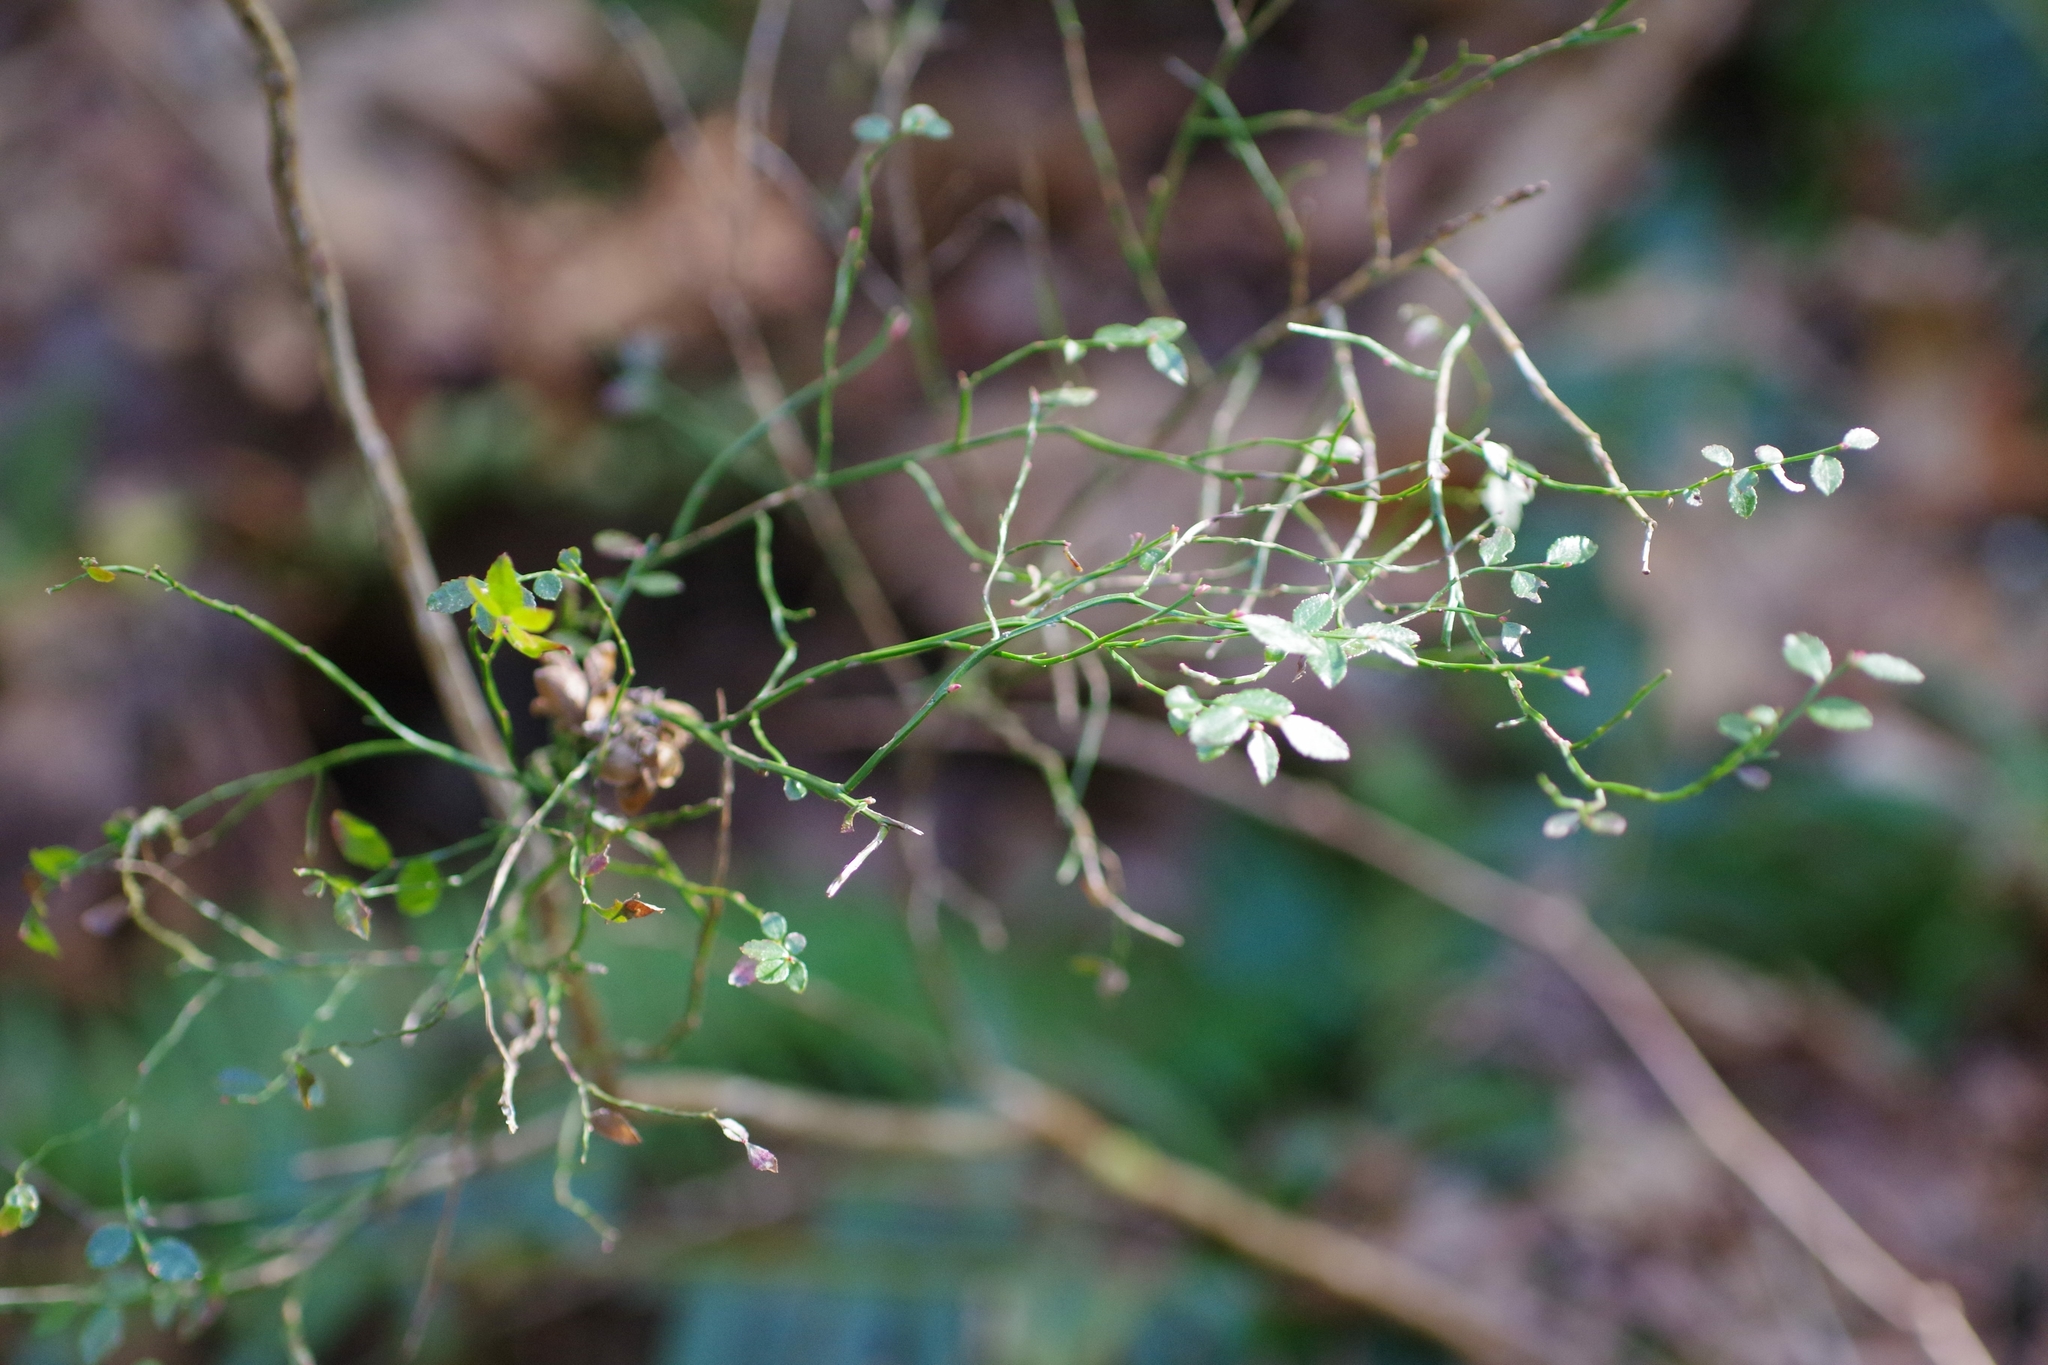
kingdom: Plantae
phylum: Tracheophyta
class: Magnoliopsida
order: Ericales
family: Ericaceae
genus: Vaccinium
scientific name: Vaccinium parvifolium
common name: Red-huckleberry
